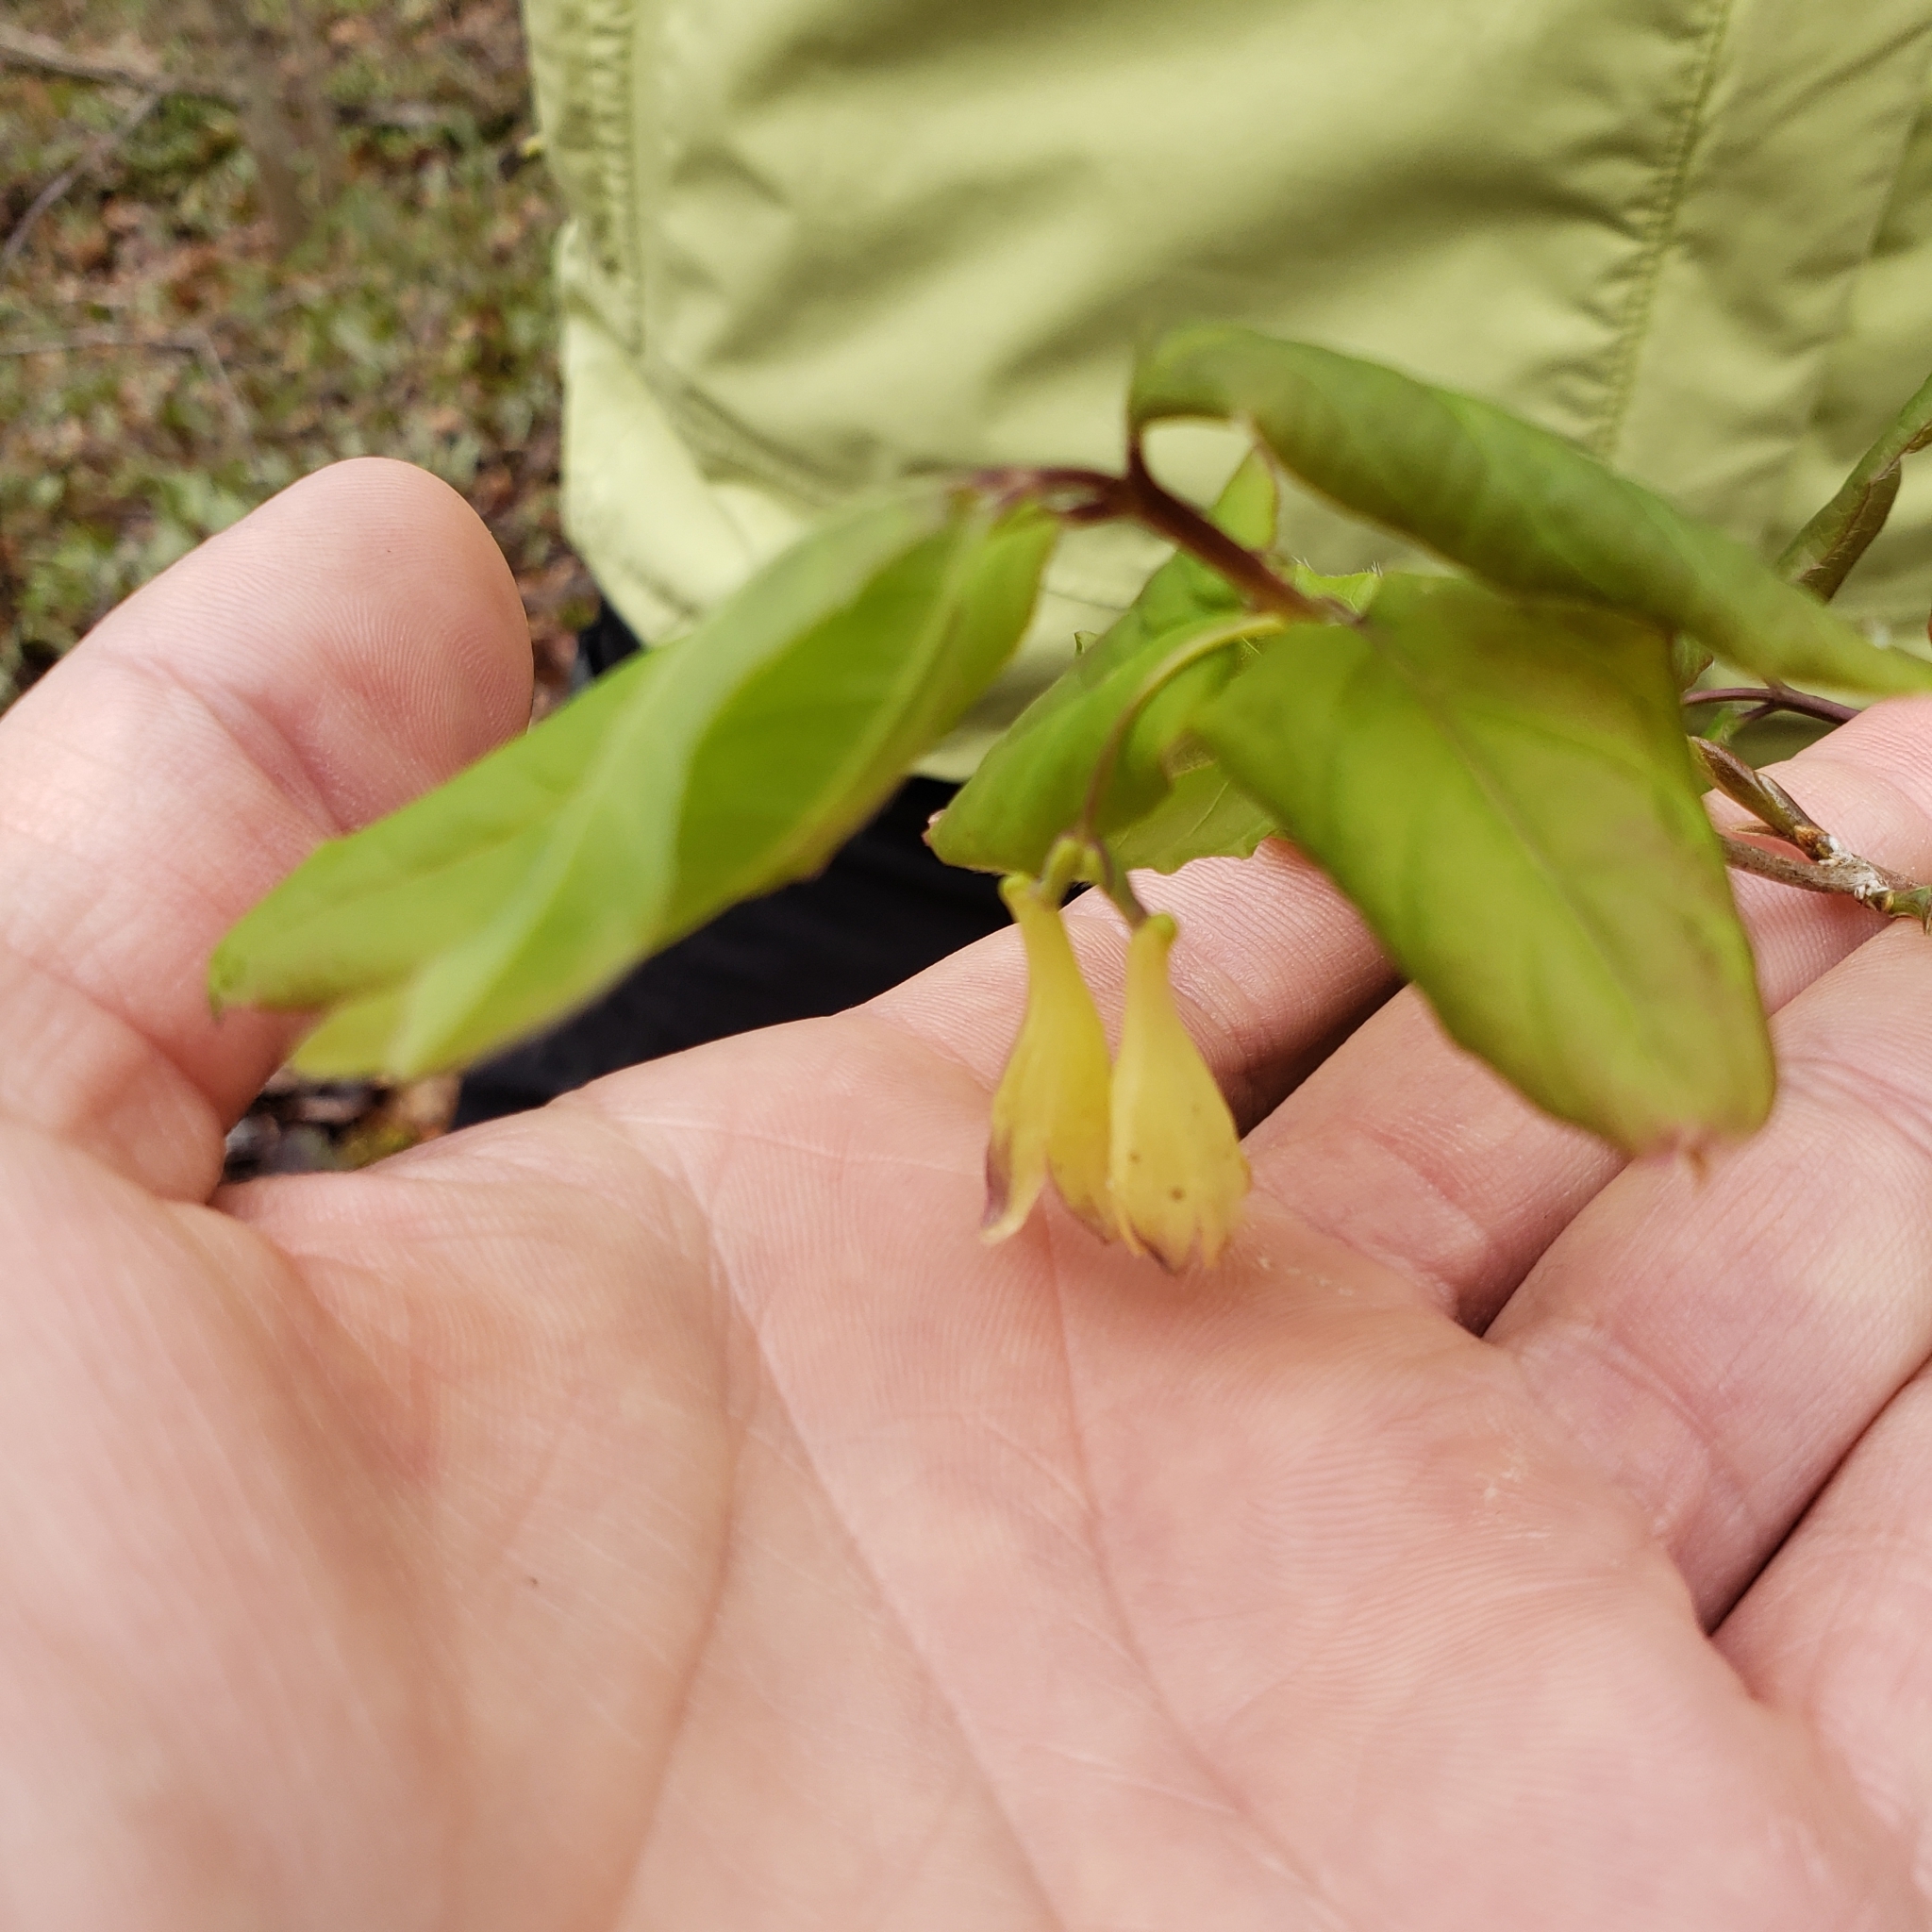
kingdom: Plantae
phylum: Tracheophyta
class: Magnoliopsida
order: Dipsacales
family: Caprifoliaceae
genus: Lonicera
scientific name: Lonicera canadensis
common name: American fly-honeysuckle
